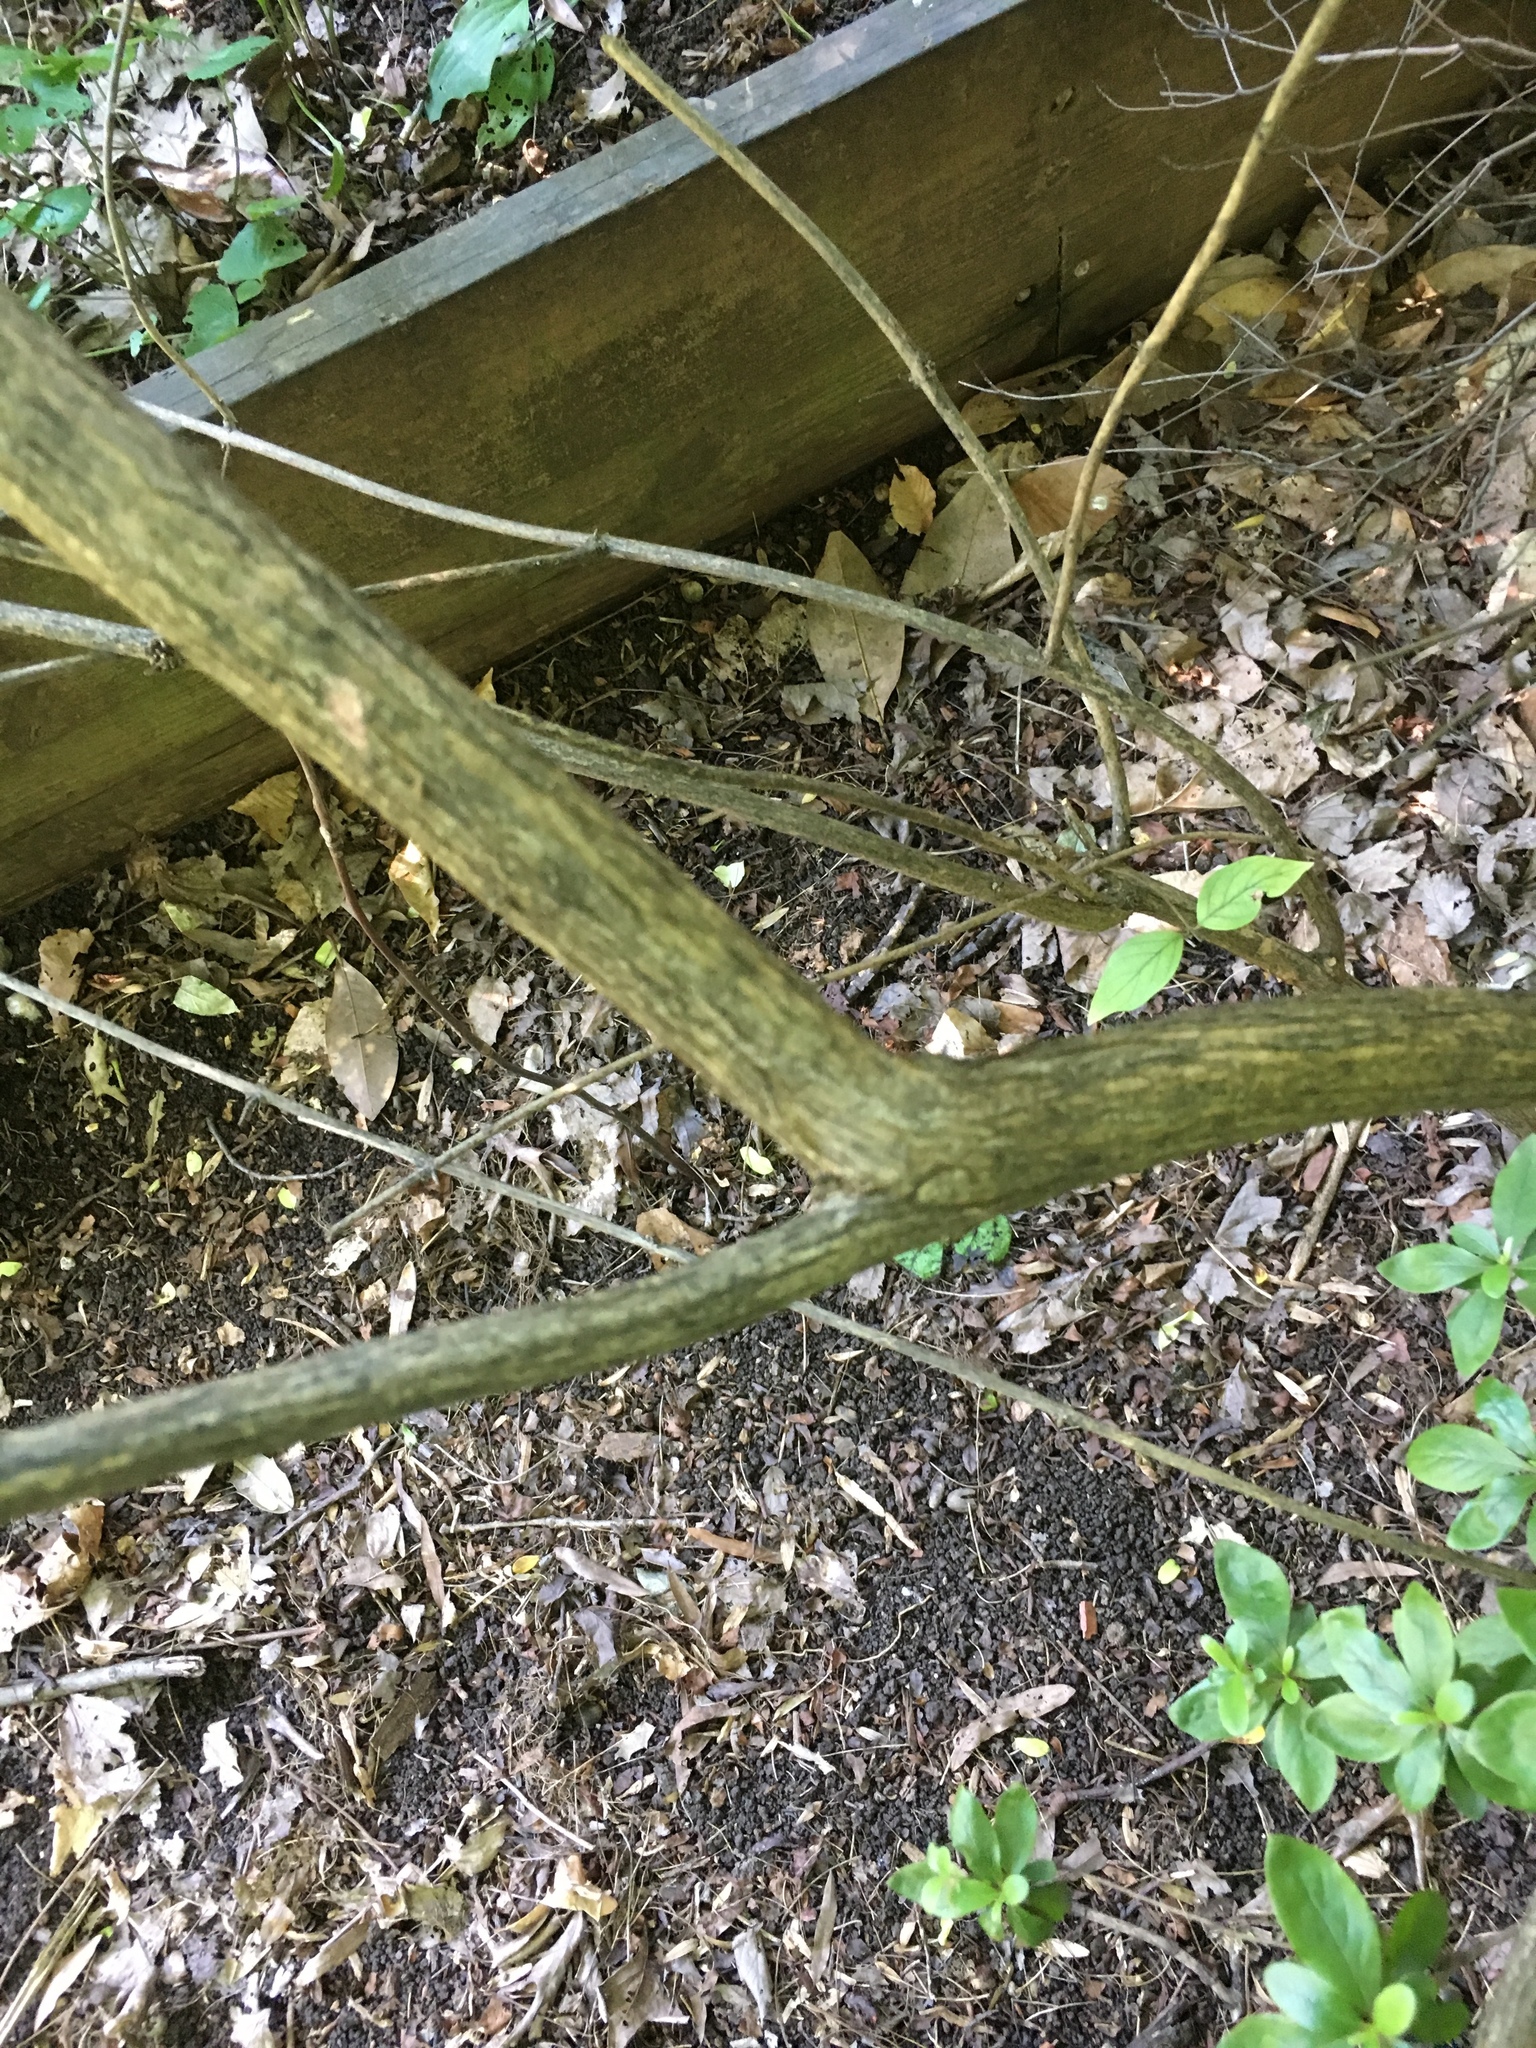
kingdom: Plantae
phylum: Tracheophyta
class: Magnoliopsida
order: Dipsacales
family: Caprifoliaceae
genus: Lonicera
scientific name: Lonicera maackii
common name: Amur honeysuckle
